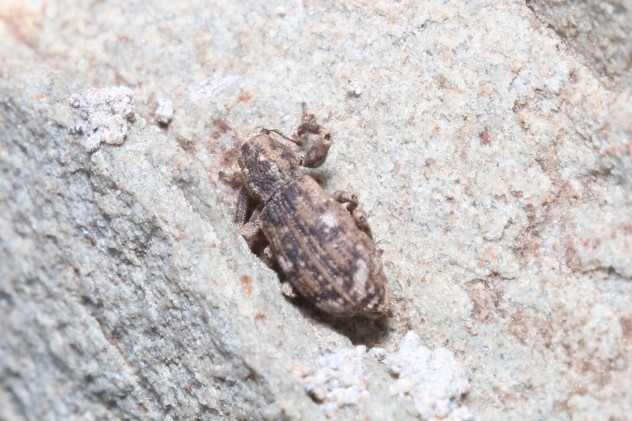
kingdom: Animalia
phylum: Arthropoda
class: Insecta
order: Coleoptera
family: Curculionidae
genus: Pandeleteius
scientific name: Pandeleteius hilaris
